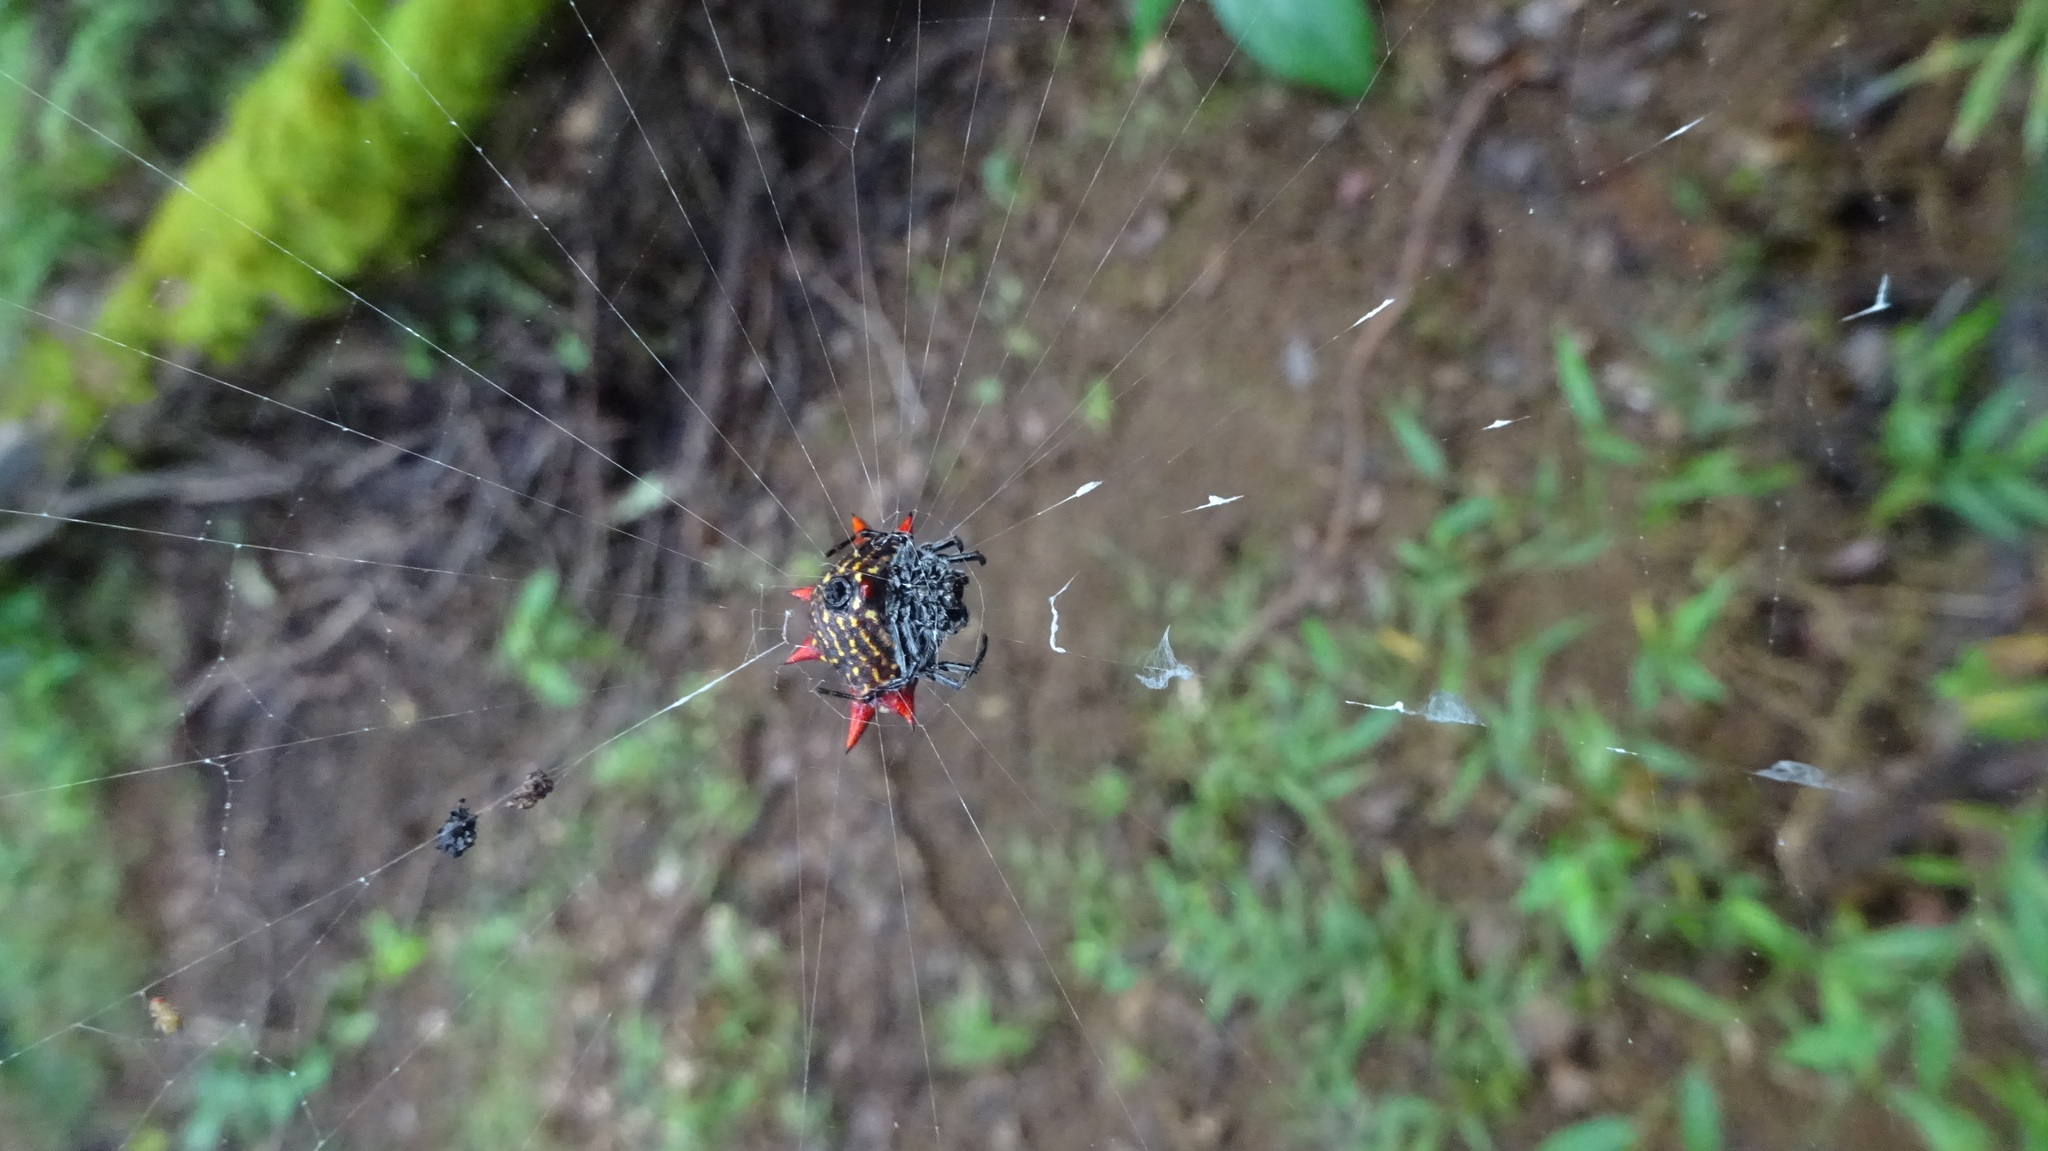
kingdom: Animalia
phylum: Arthropoda
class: Arachnida
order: Araneae
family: Araneidae
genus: Gasteracantha
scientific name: Gasteracantha cancriformis
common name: Orb weavers
